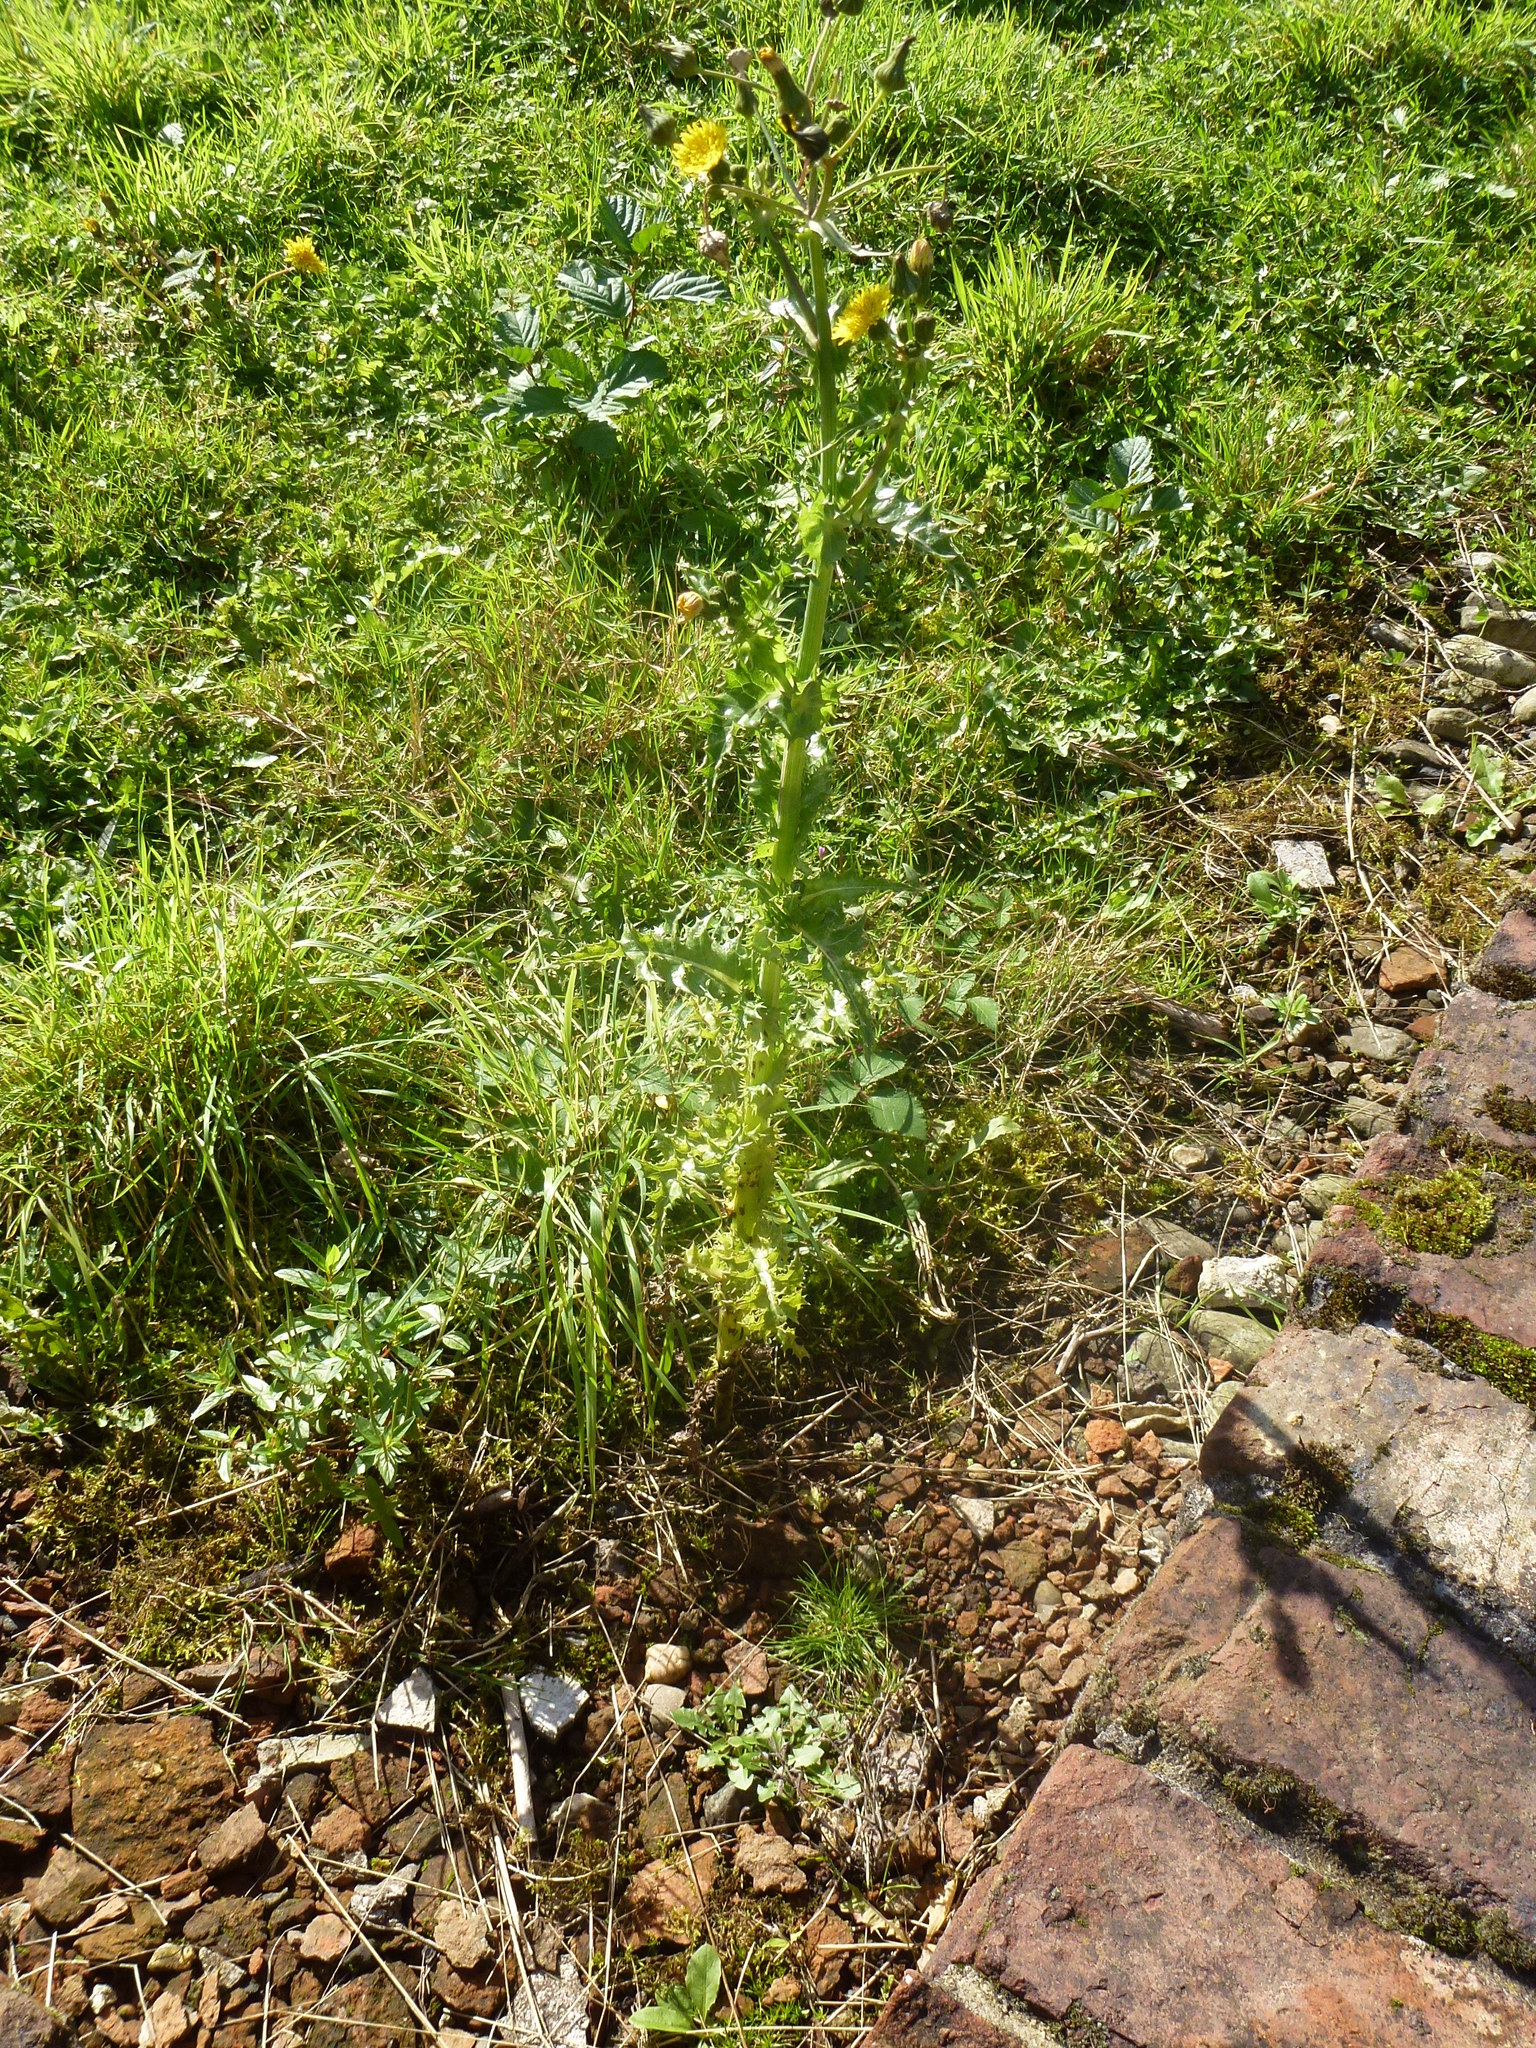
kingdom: Plantae
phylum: Tracheophyta
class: Magnoliopsida
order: Asterales
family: Asteraceae
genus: Sonchus
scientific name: Sonchus asper
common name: Prickly sow-thistle
